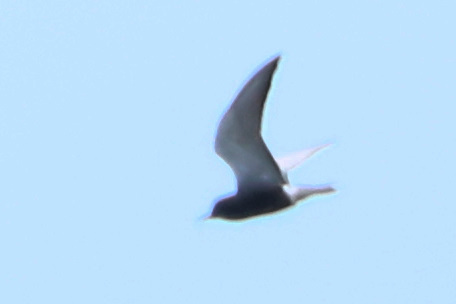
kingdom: Animalia
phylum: Chordata
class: Aves
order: Charadriiformes
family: Laridae
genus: Chlidonias
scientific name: Chlidonias niger
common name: Black tern
